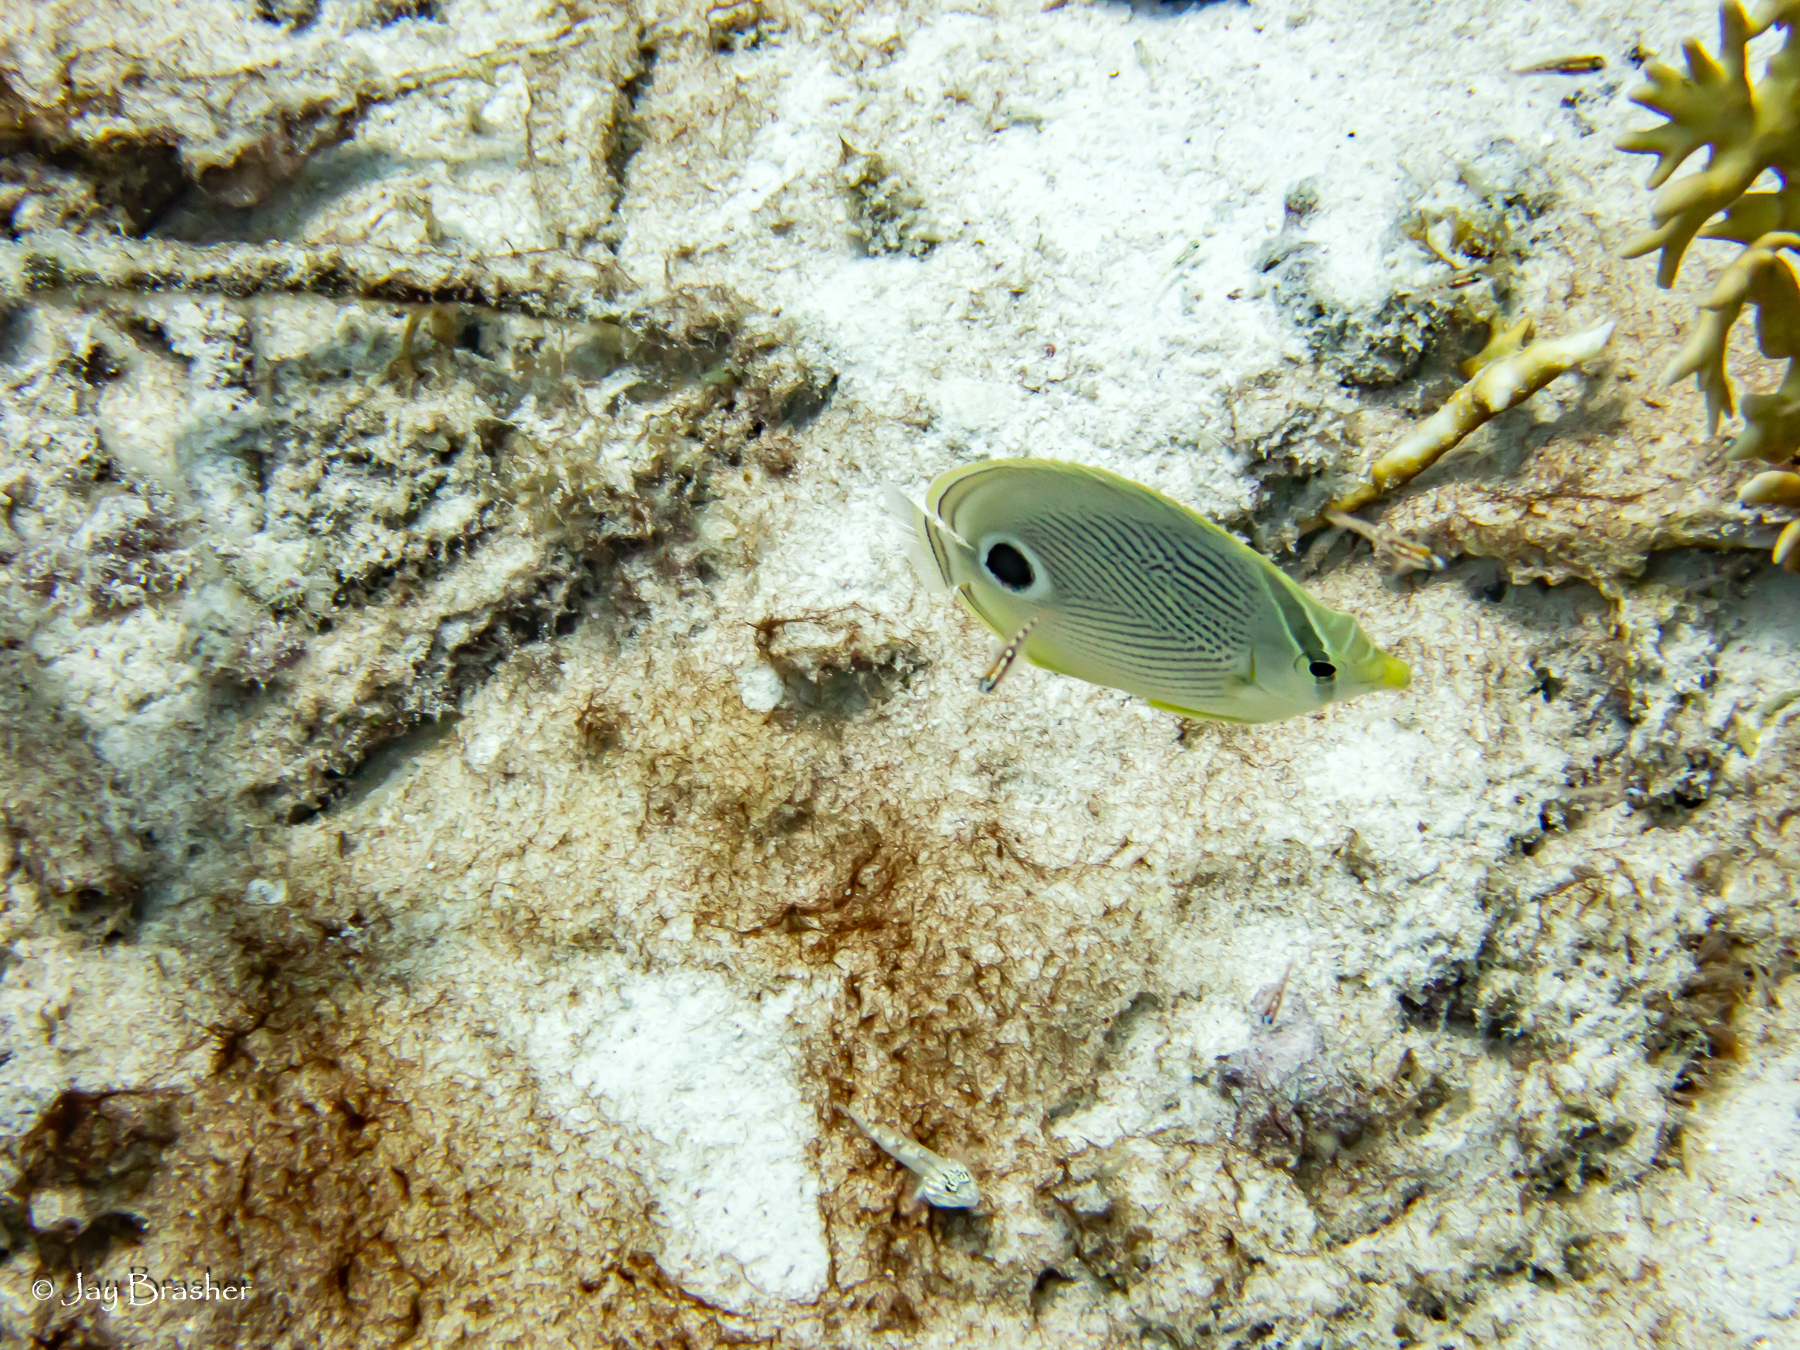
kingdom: Animalia
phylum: Chordata
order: Perciformes
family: Chaetodontidae
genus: Chaetodon
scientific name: Chaetodon capistratus
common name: Kete
